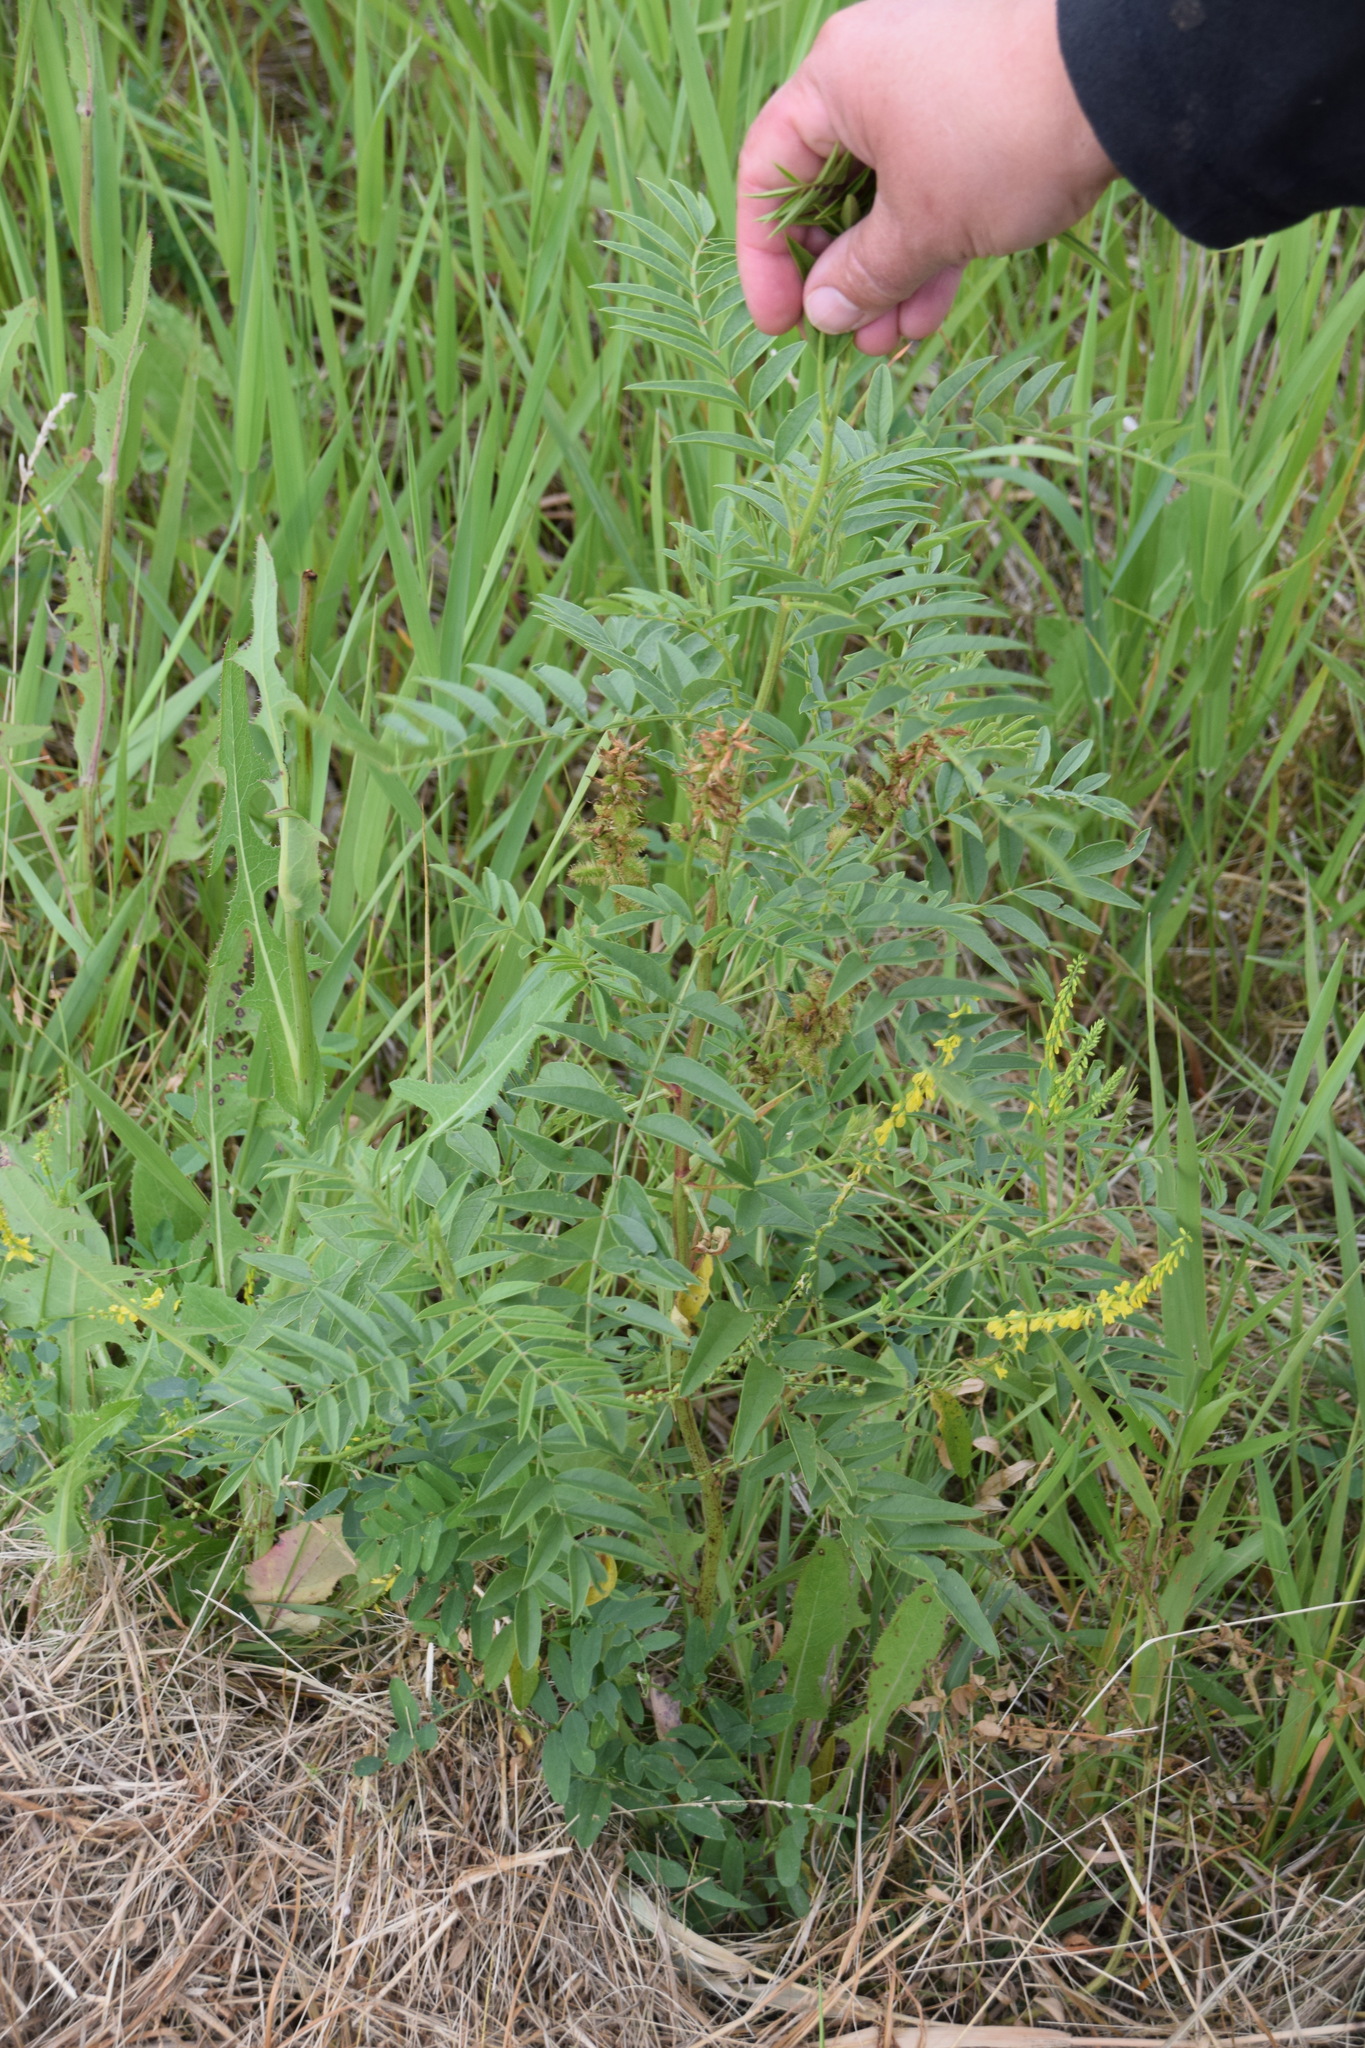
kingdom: Plantae
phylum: Tracheophyta
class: Magnoliopsida
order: Fabales
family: Fabaceae
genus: Glycyrrhiza
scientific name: Glycyrrhiza lepidota
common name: American liquorice
